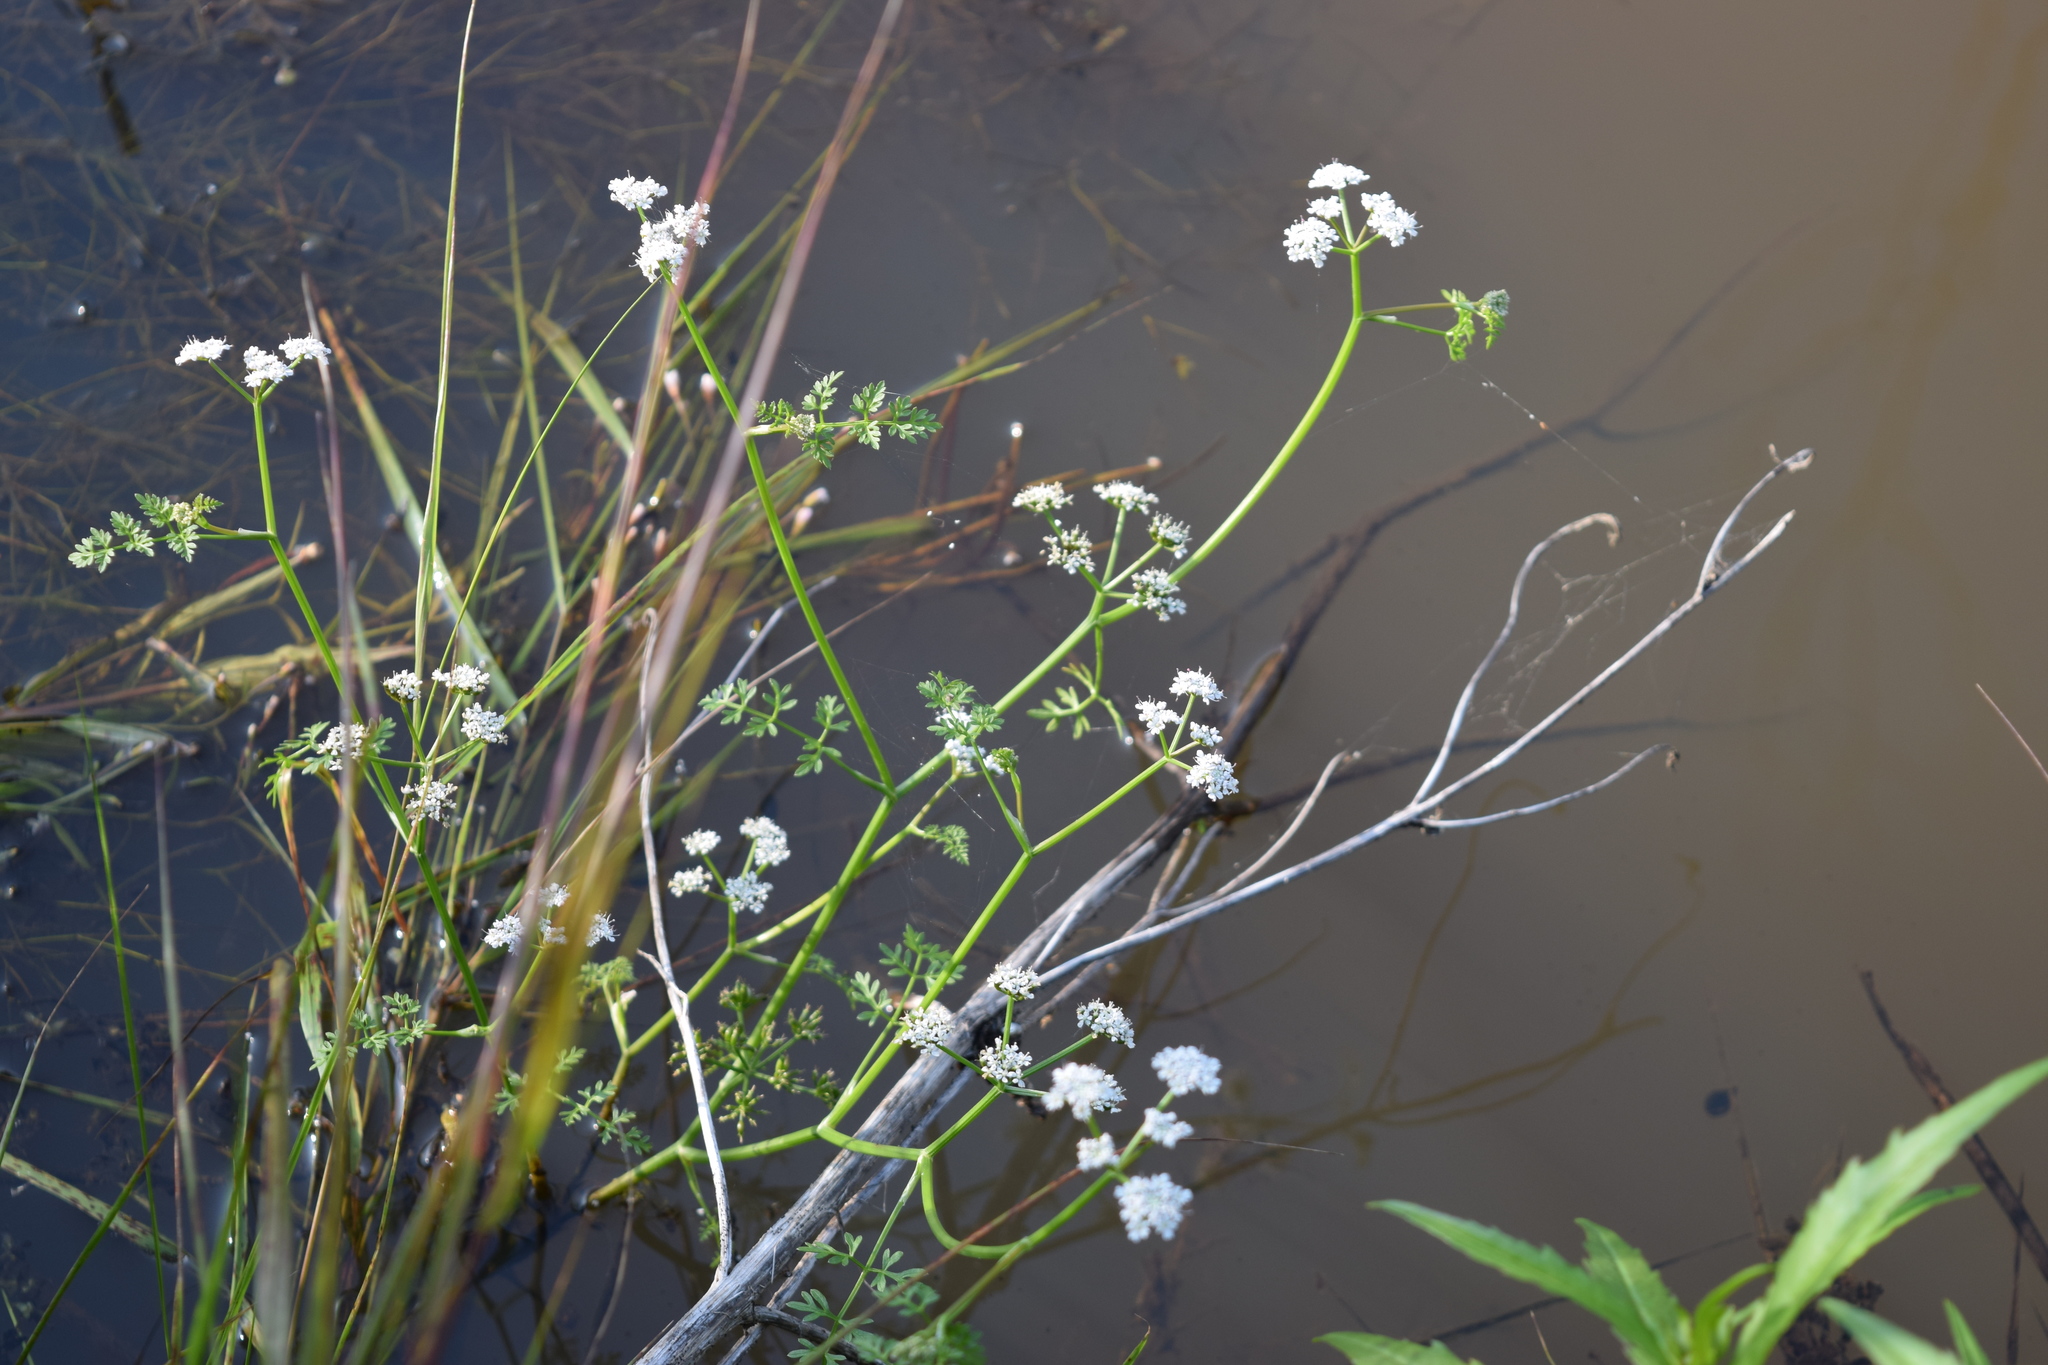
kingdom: Plantae
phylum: Tracheophyta
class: Magnoliopsida
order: Apiales
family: Apiaceae
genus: Oenanthe
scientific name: Oenanthe aquatica
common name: Fine-leaved water-dropwort
